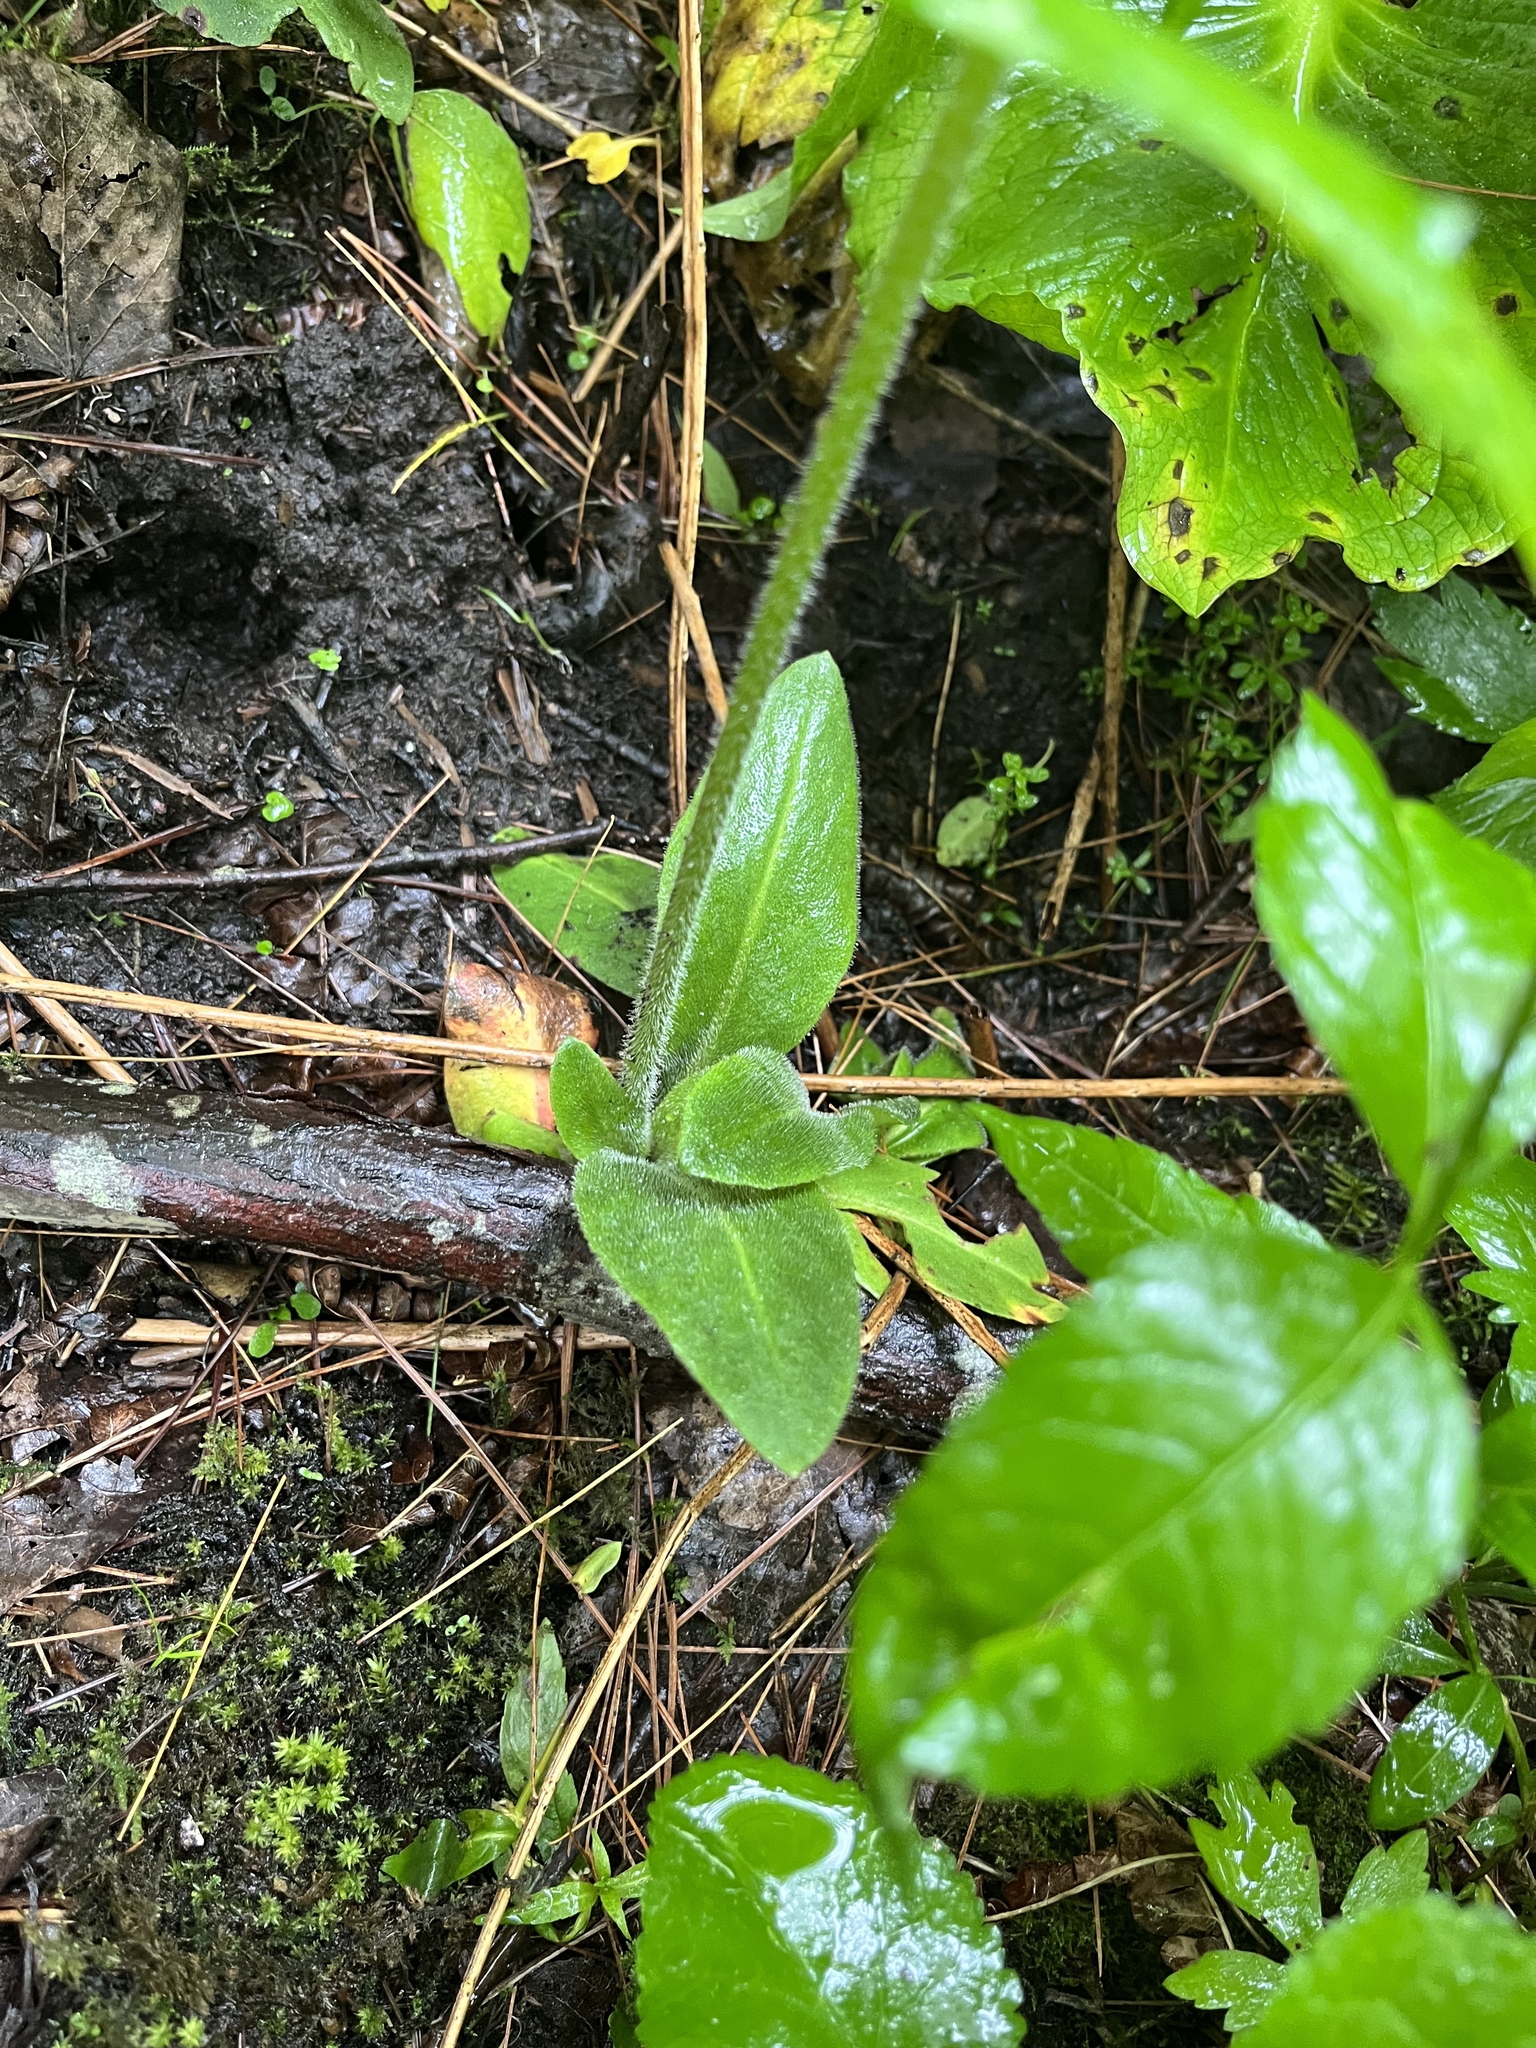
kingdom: Plantae
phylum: Tracheophyta
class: Magnoliopsida
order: Saxifragales
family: Saxifragaceae
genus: Micranthes
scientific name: Micranthes pensylvanica
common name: Marsh saxifrage
